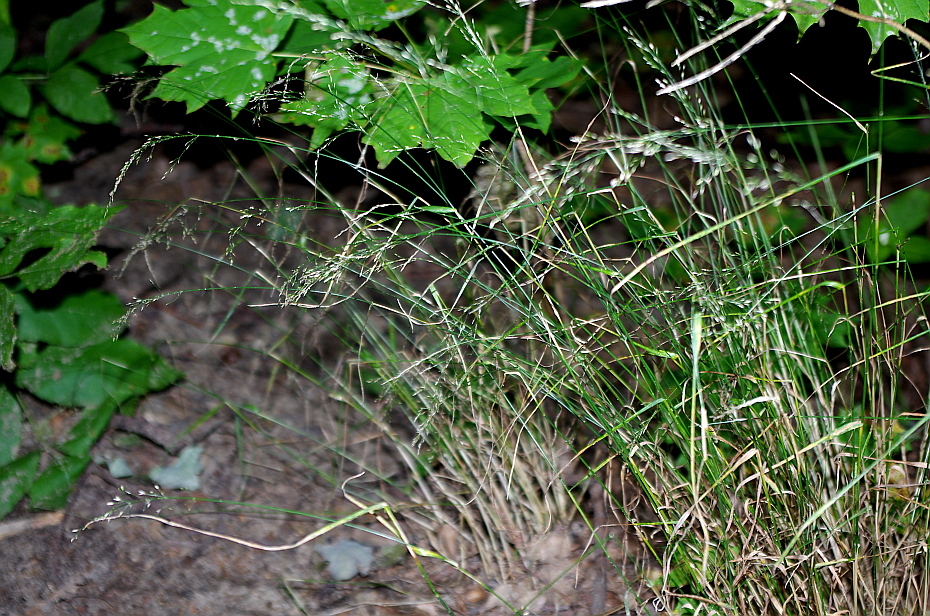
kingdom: Plantae
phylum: Tracheophyta
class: Liliopsida
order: Poales
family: Poaceae
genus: Poa
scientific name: Poa nemoralis
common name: Wood bluegrass
